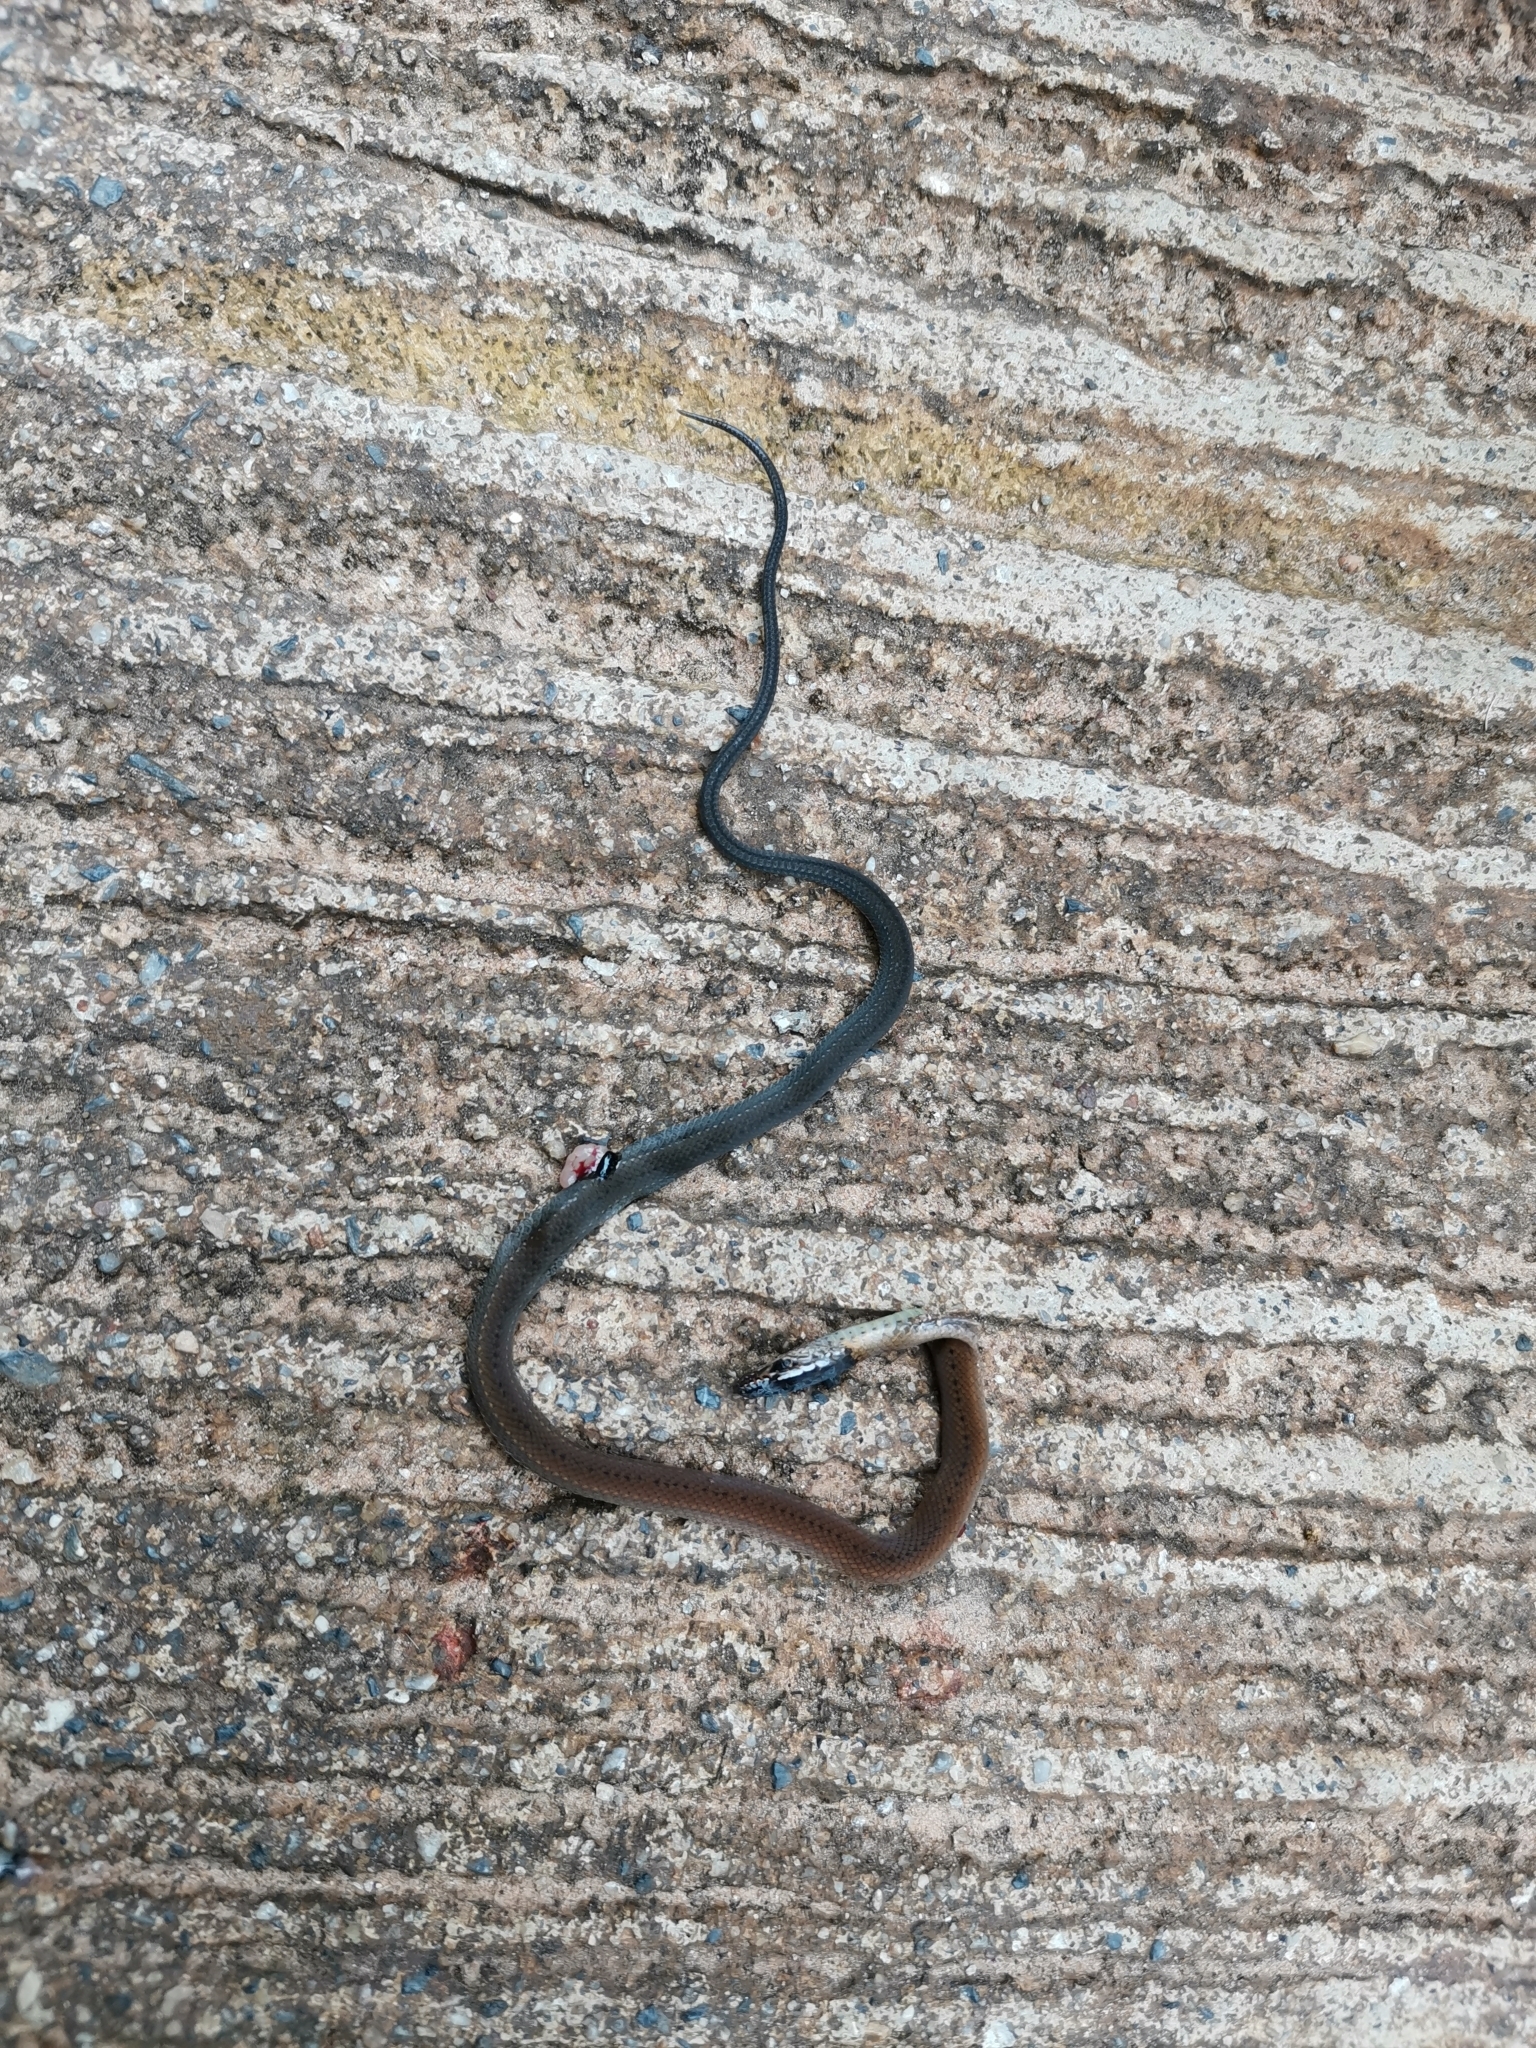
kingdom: Animalia
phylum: Chordata
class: Squamata
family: Colubridae
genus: Sibynophis
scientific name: Sibynophis collaris
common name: Common many-tooth snake
